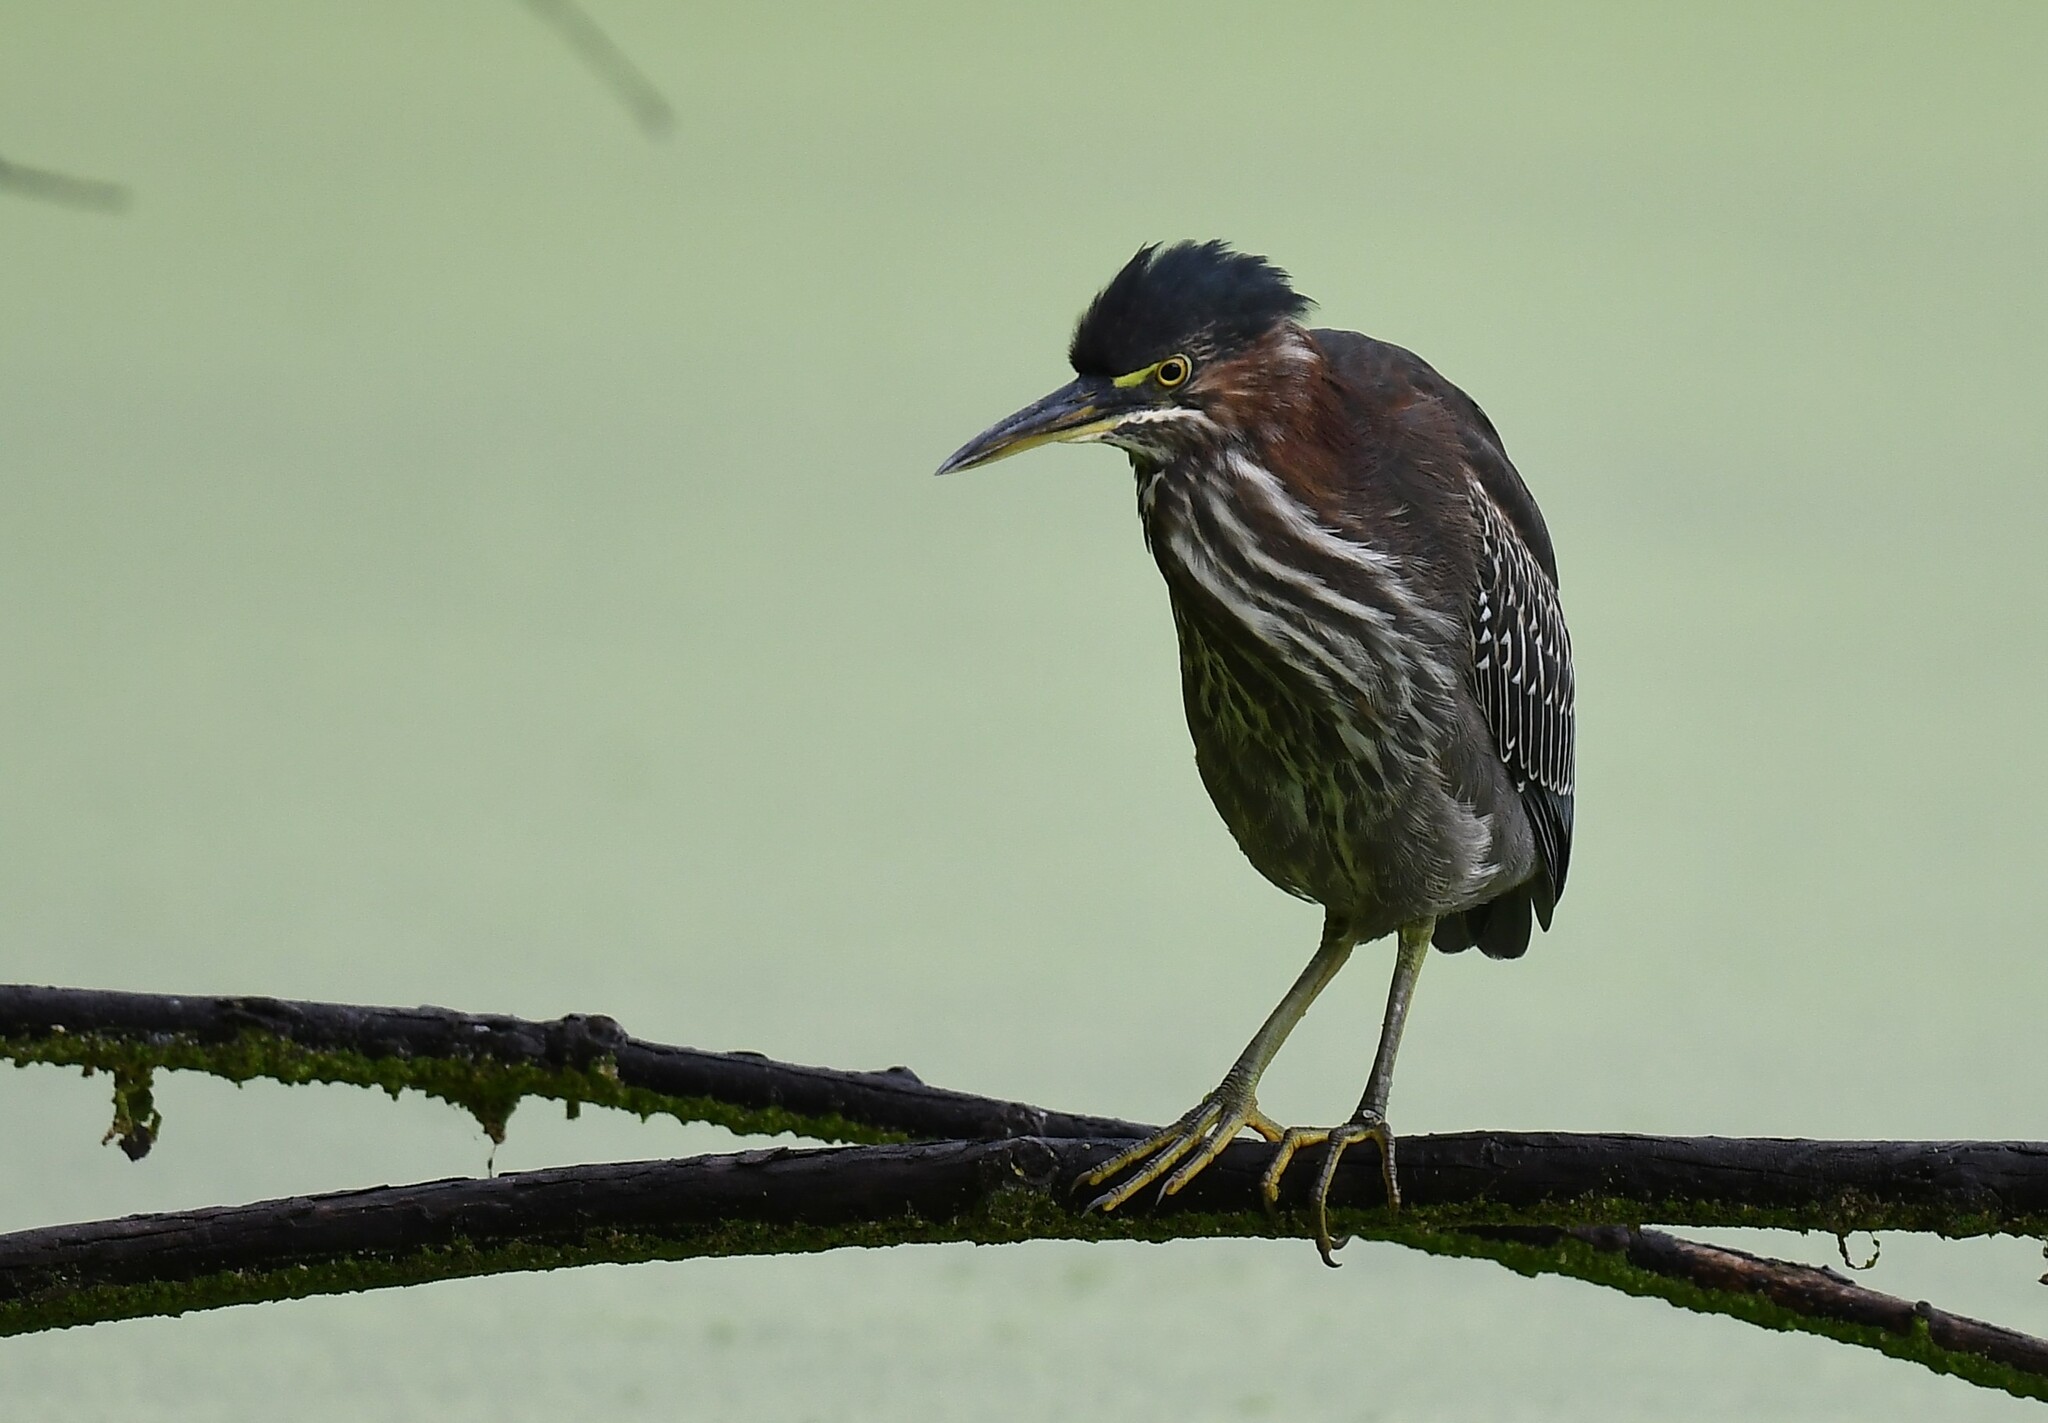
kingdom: Animalia
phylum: Chordata
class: Aves
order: Pelecaniformes
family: Ardeidae
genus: Butorides
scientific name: Butorides virescens
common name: Green heron
